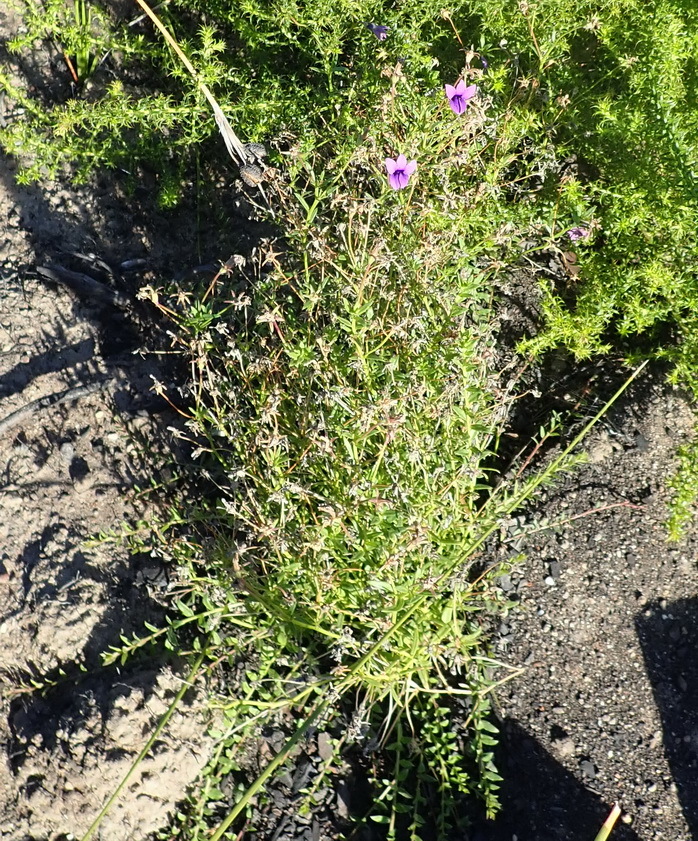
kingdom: Plantae
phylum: Tracheophyta
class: Magnoliopsida
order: Asterales
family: Campanulaceae
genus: Monopsis
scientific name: Monopsis unidentata
